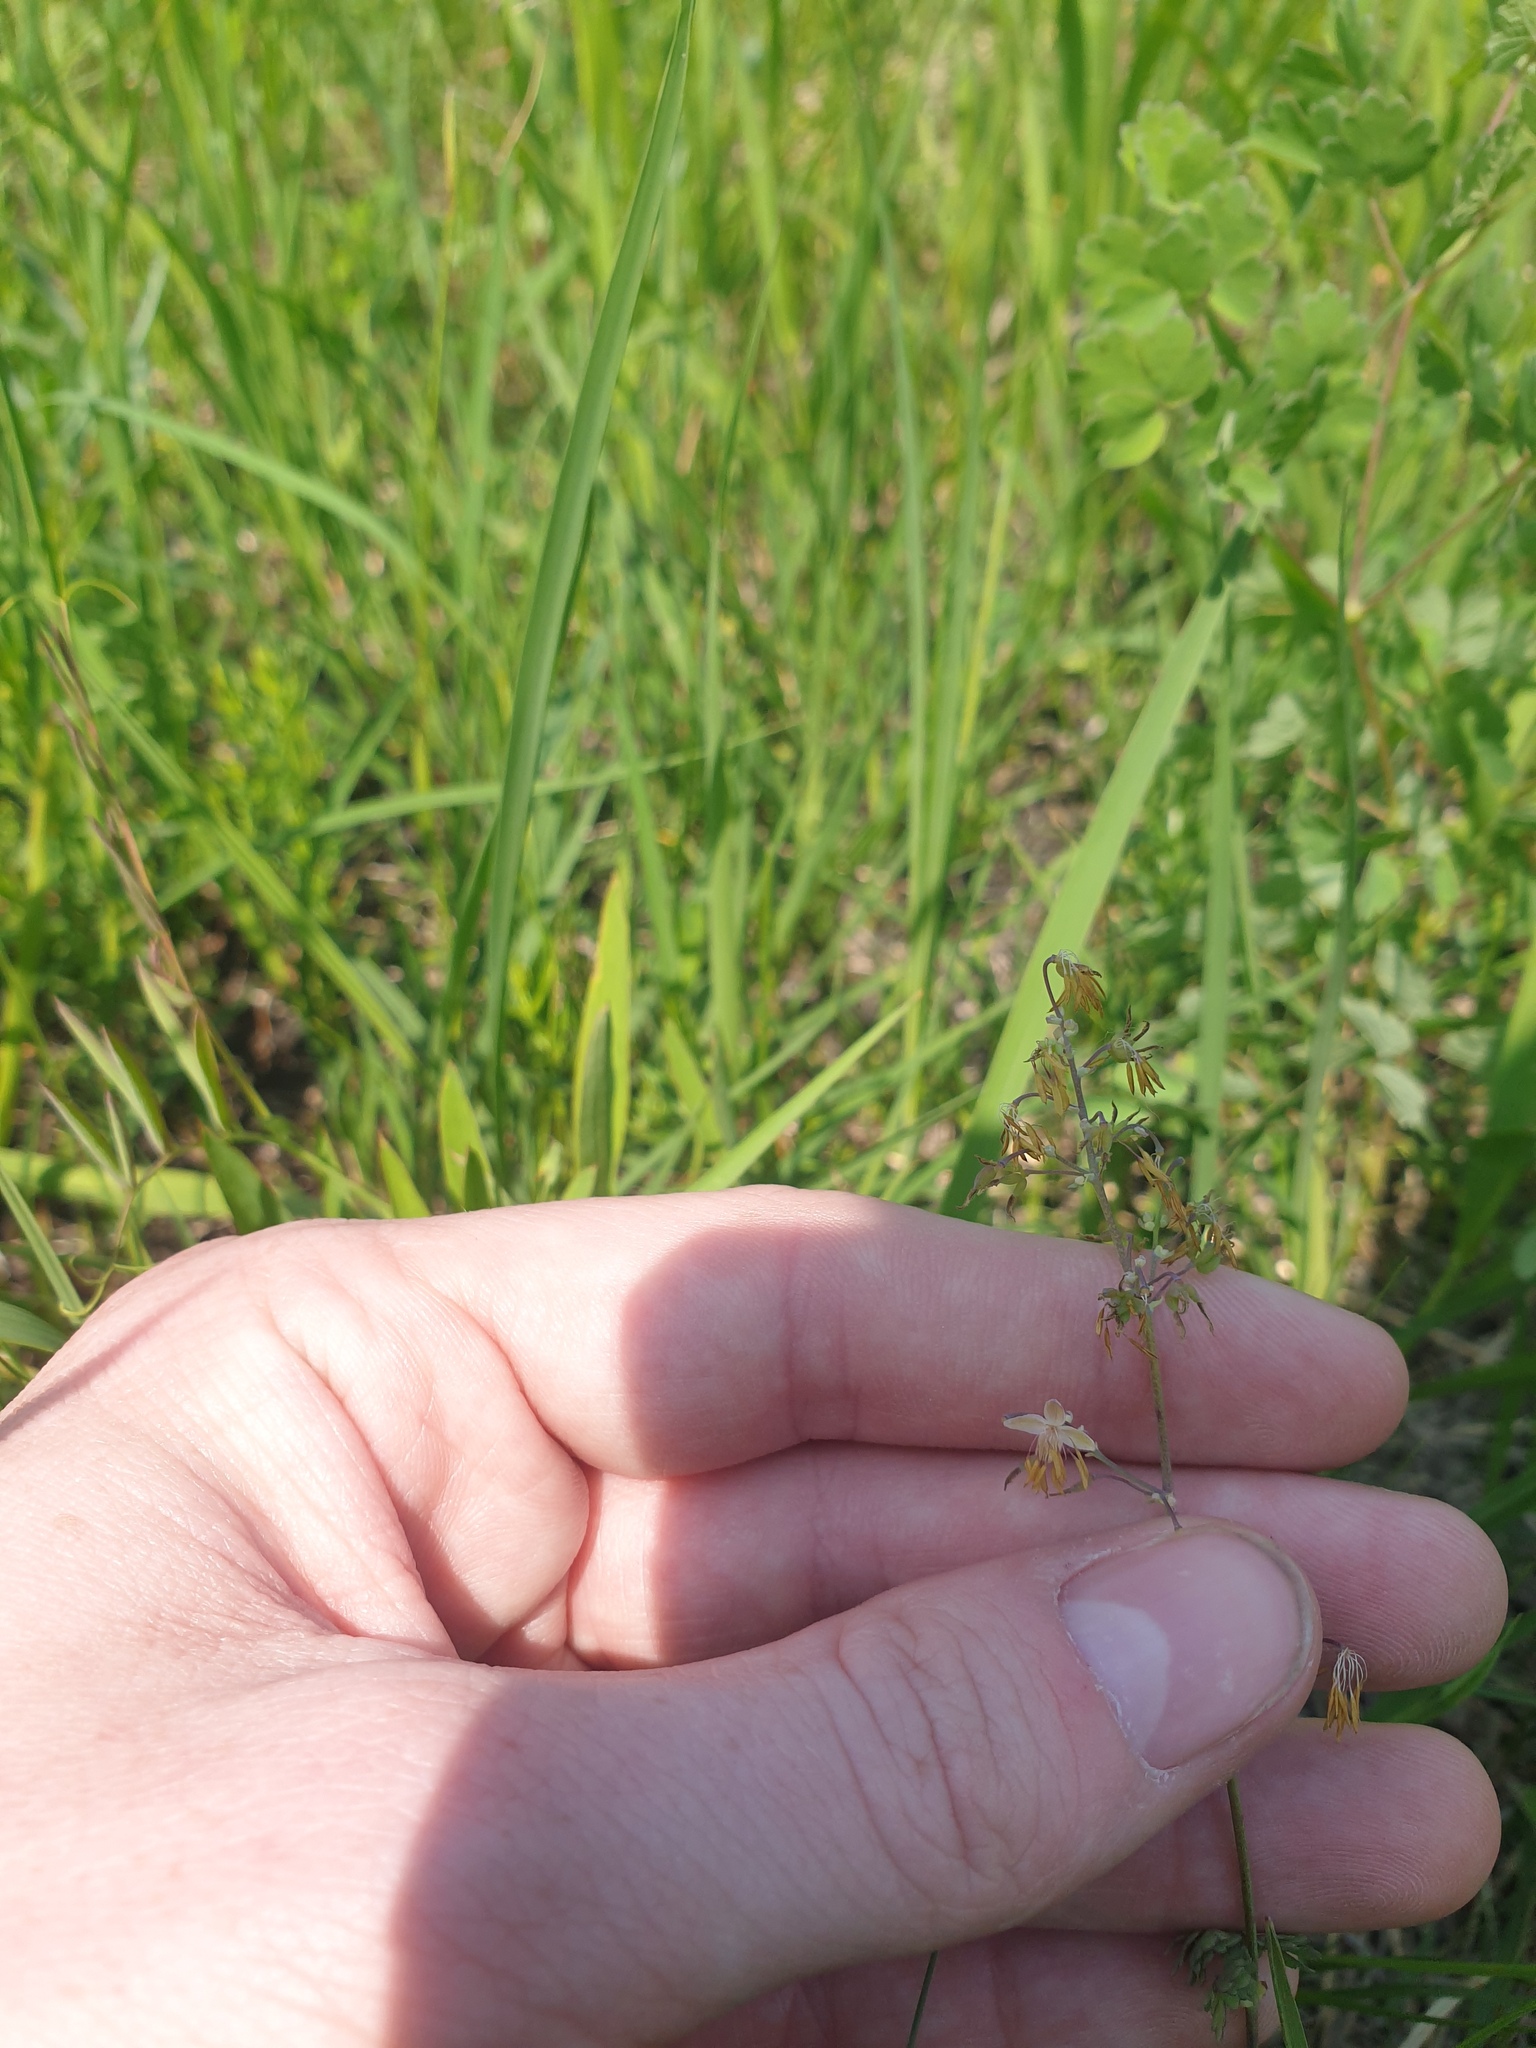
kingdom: Plantae
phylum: Tracheophyta
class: Magnoliopsida
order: Ranunculales
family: Ranunculaceae
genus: Thalictrum
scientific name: Thalictrum venulosum
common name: Early meadow-rue
